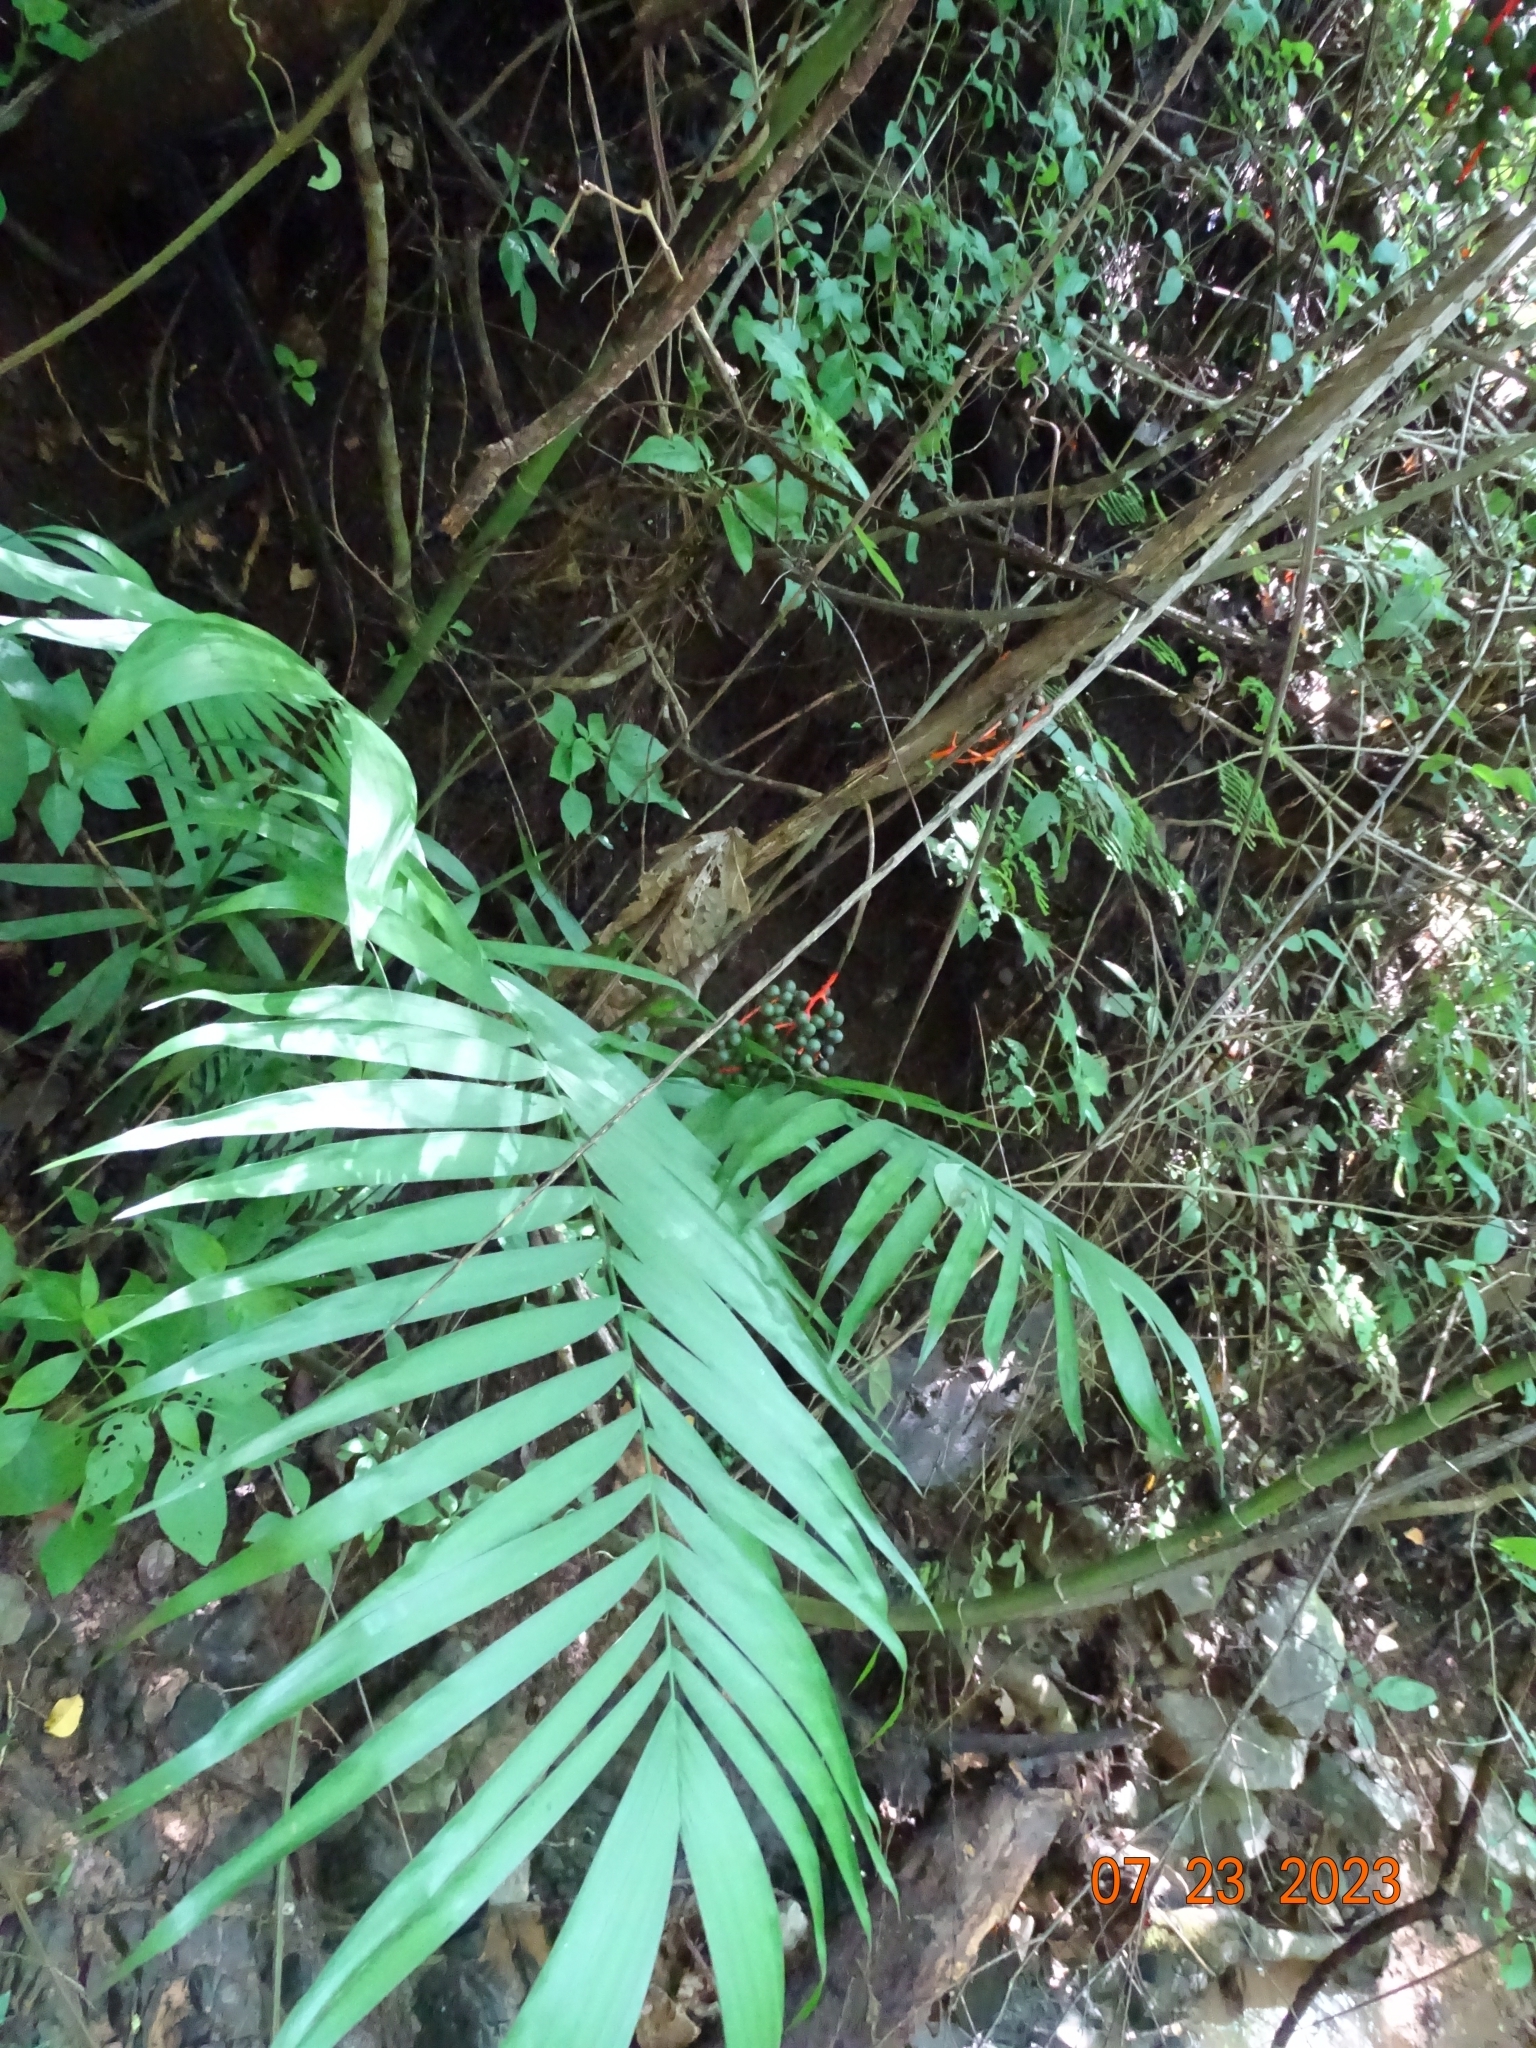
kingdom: Plantae
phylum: Tracheophyta
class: Liliopsida
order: Arecales
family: Arecaceae
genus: Chamaedorea
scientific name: Chamaedorea pochutlensis
